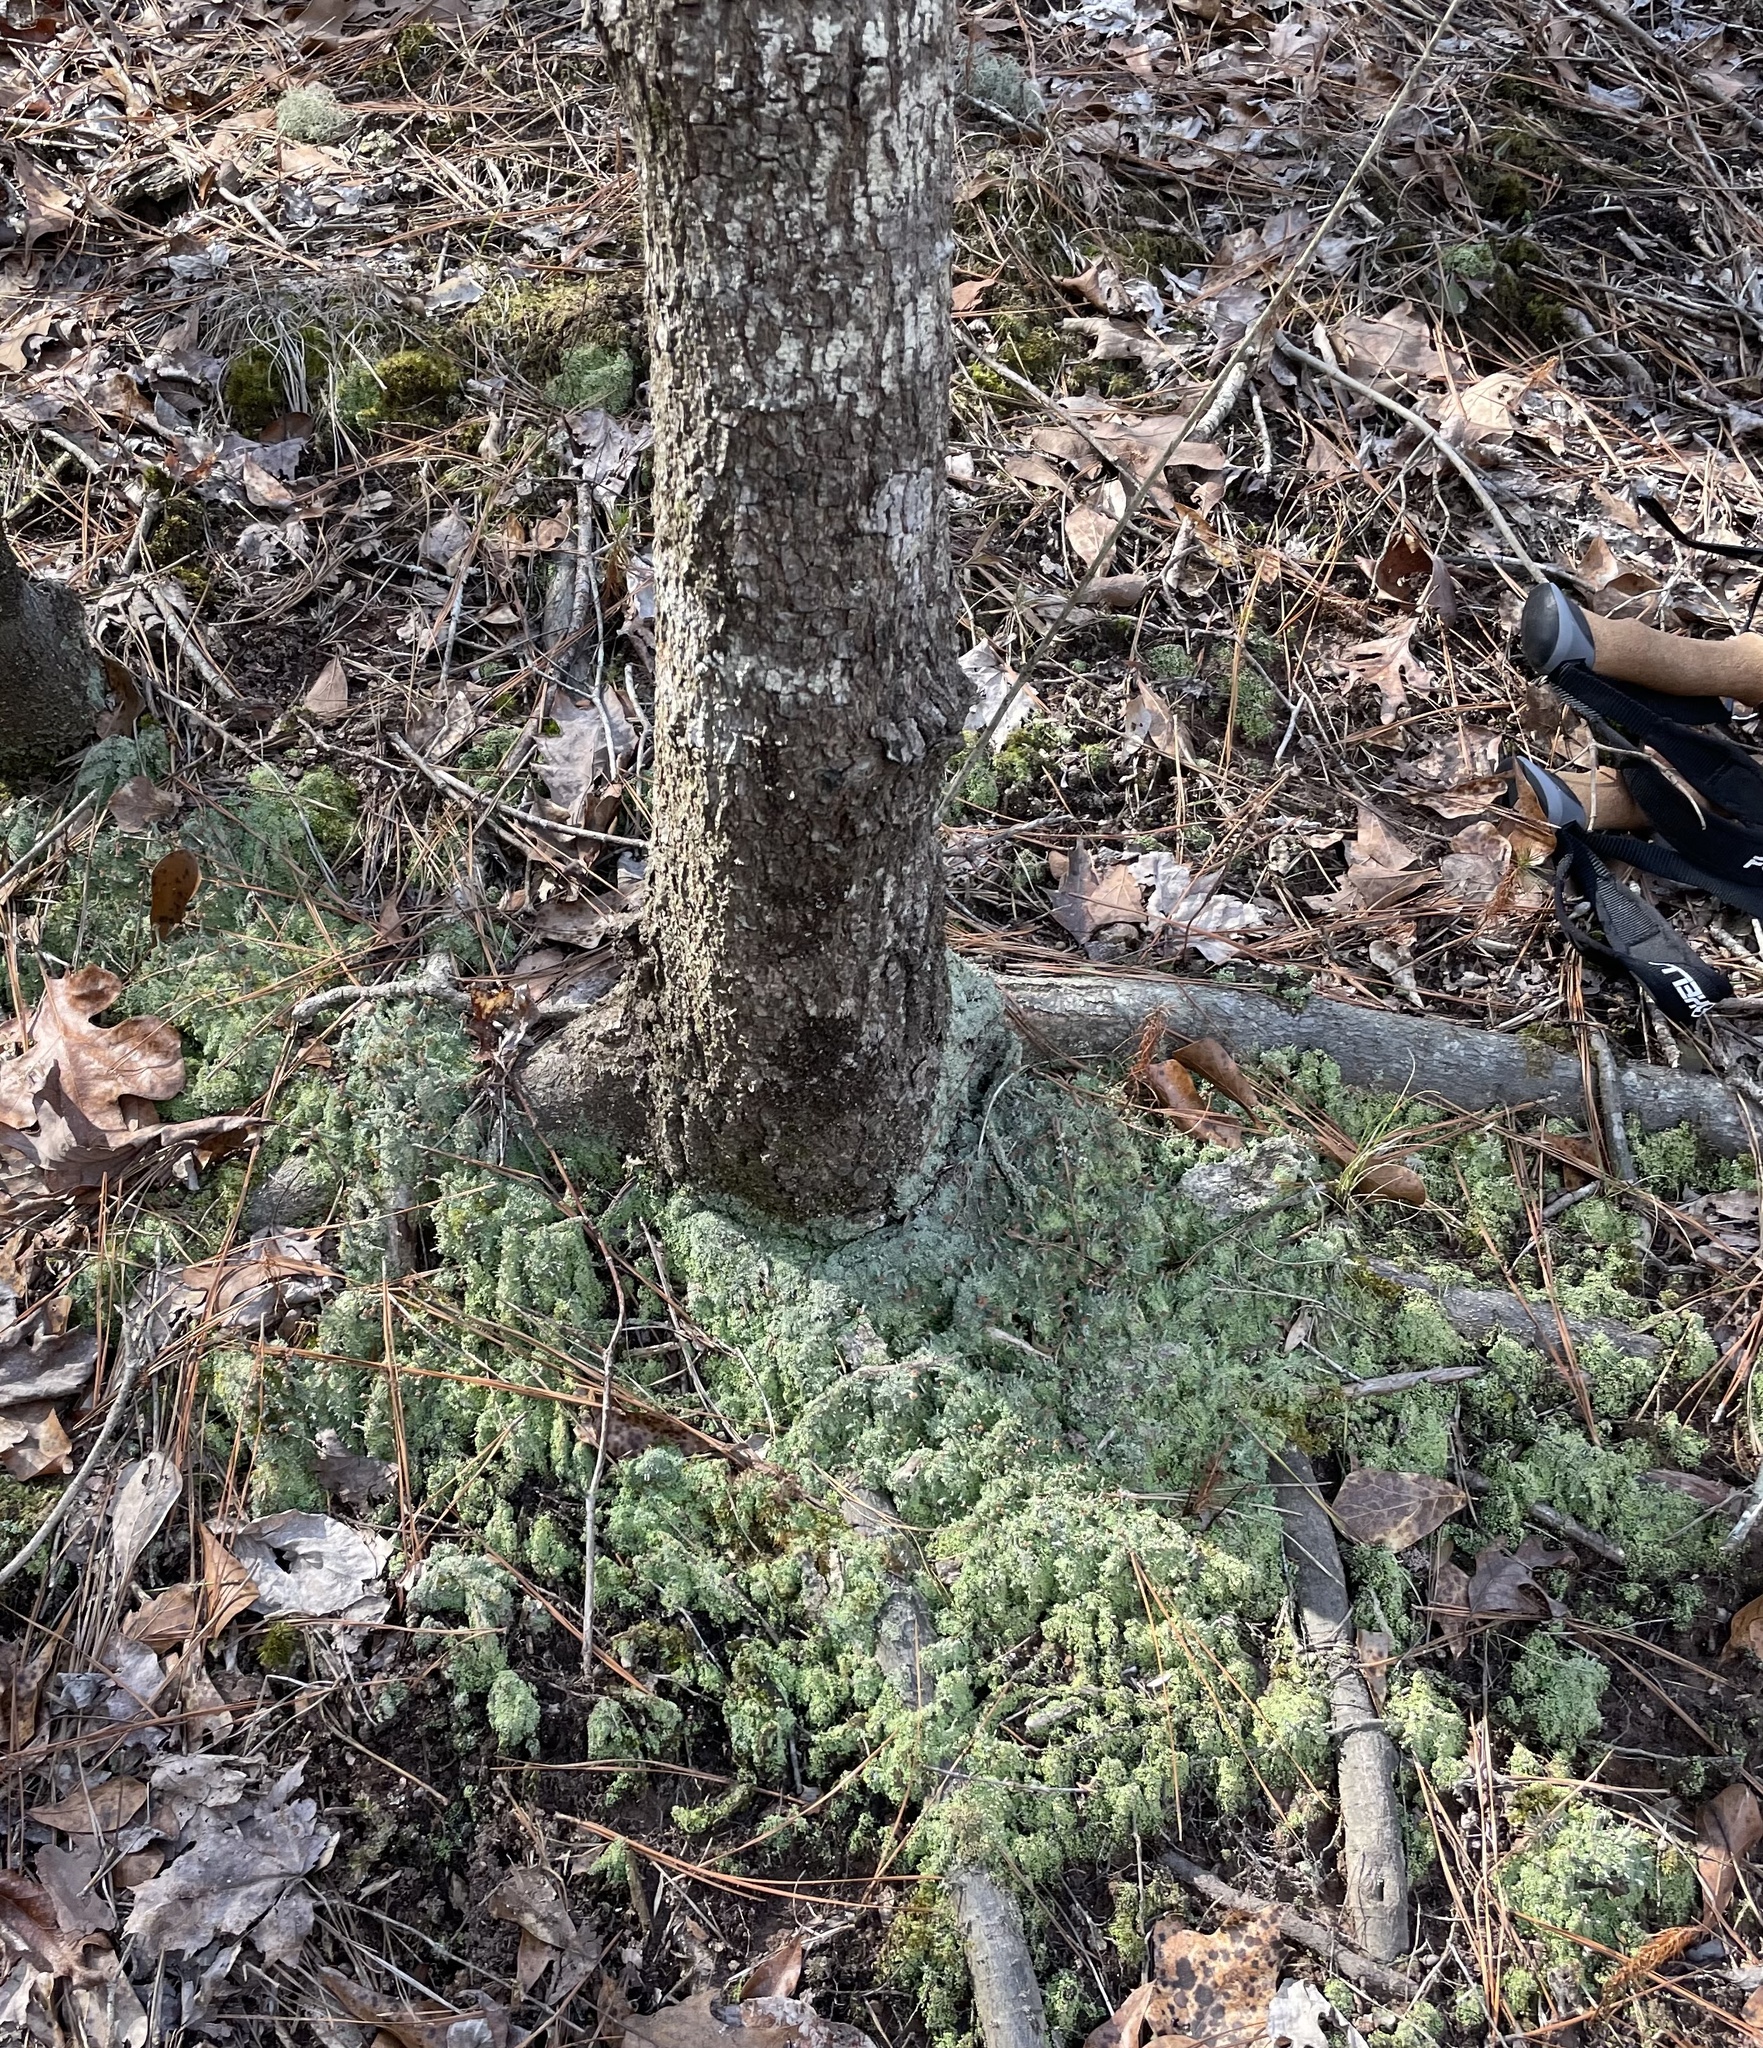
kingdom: Fungi
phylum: Ascomycota
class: Lecanoromycetes
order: Lecanorales
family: Cladoniaceae
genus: Cladonia
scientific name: Cladonia peziziformis
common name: Cup lichen
